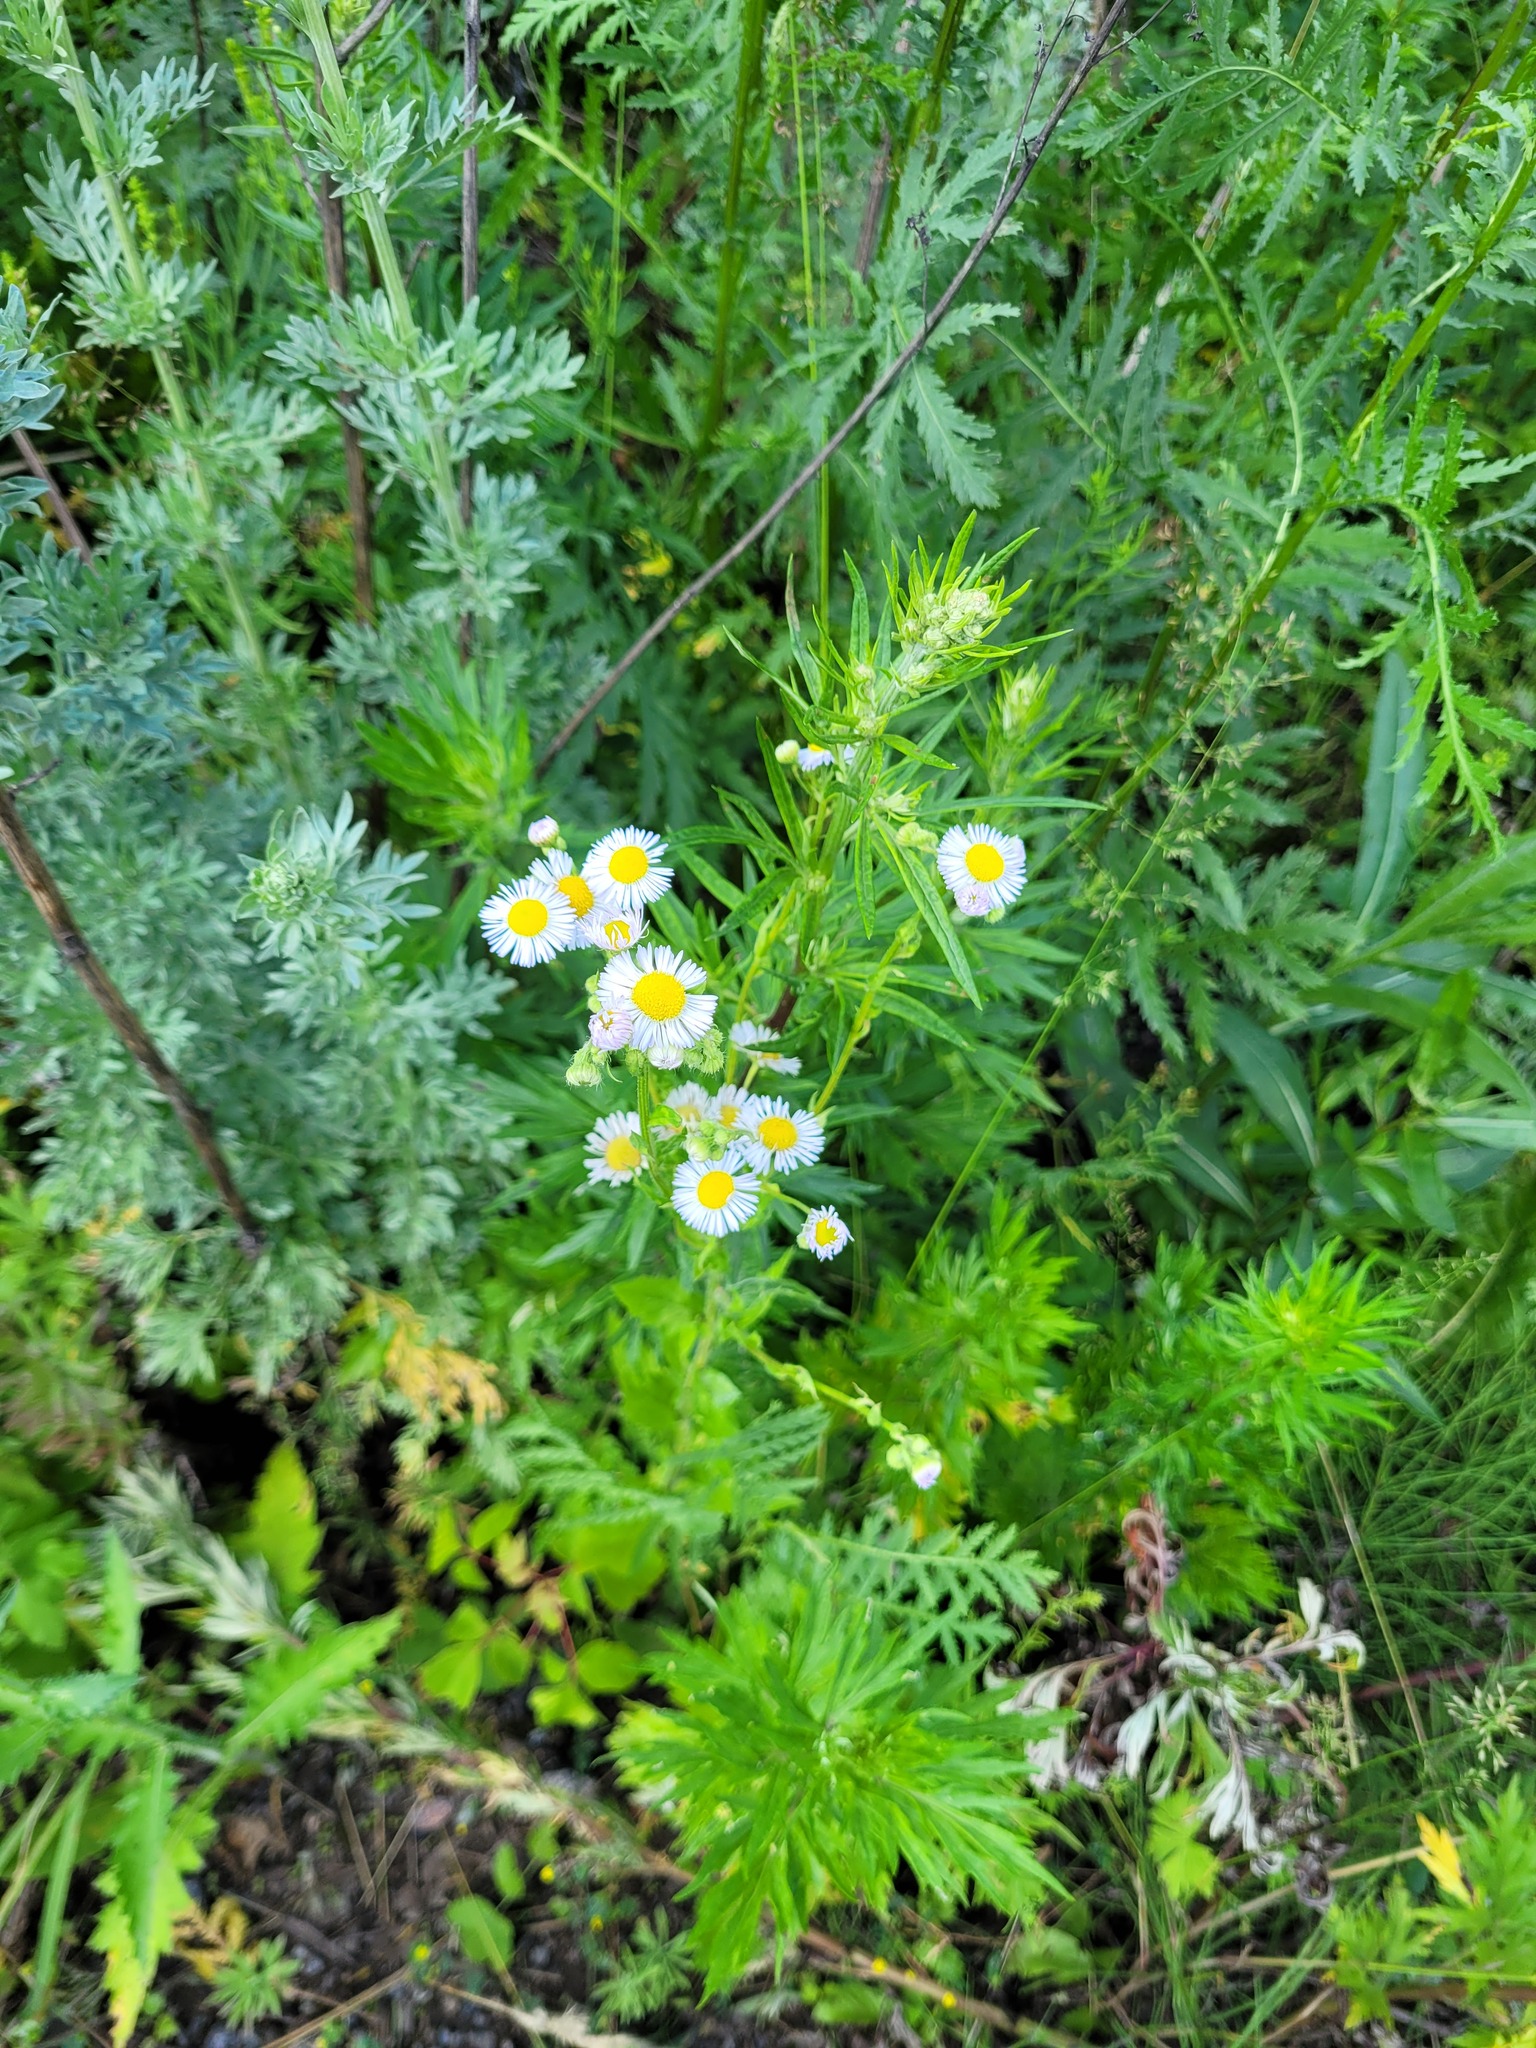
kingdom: Plantae
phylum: Tracheophyta
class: Magnoliopsida
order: Asterales
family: Asteraceae
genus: Erigeron
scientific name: Erigeron annuus
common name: Tall fleabane
